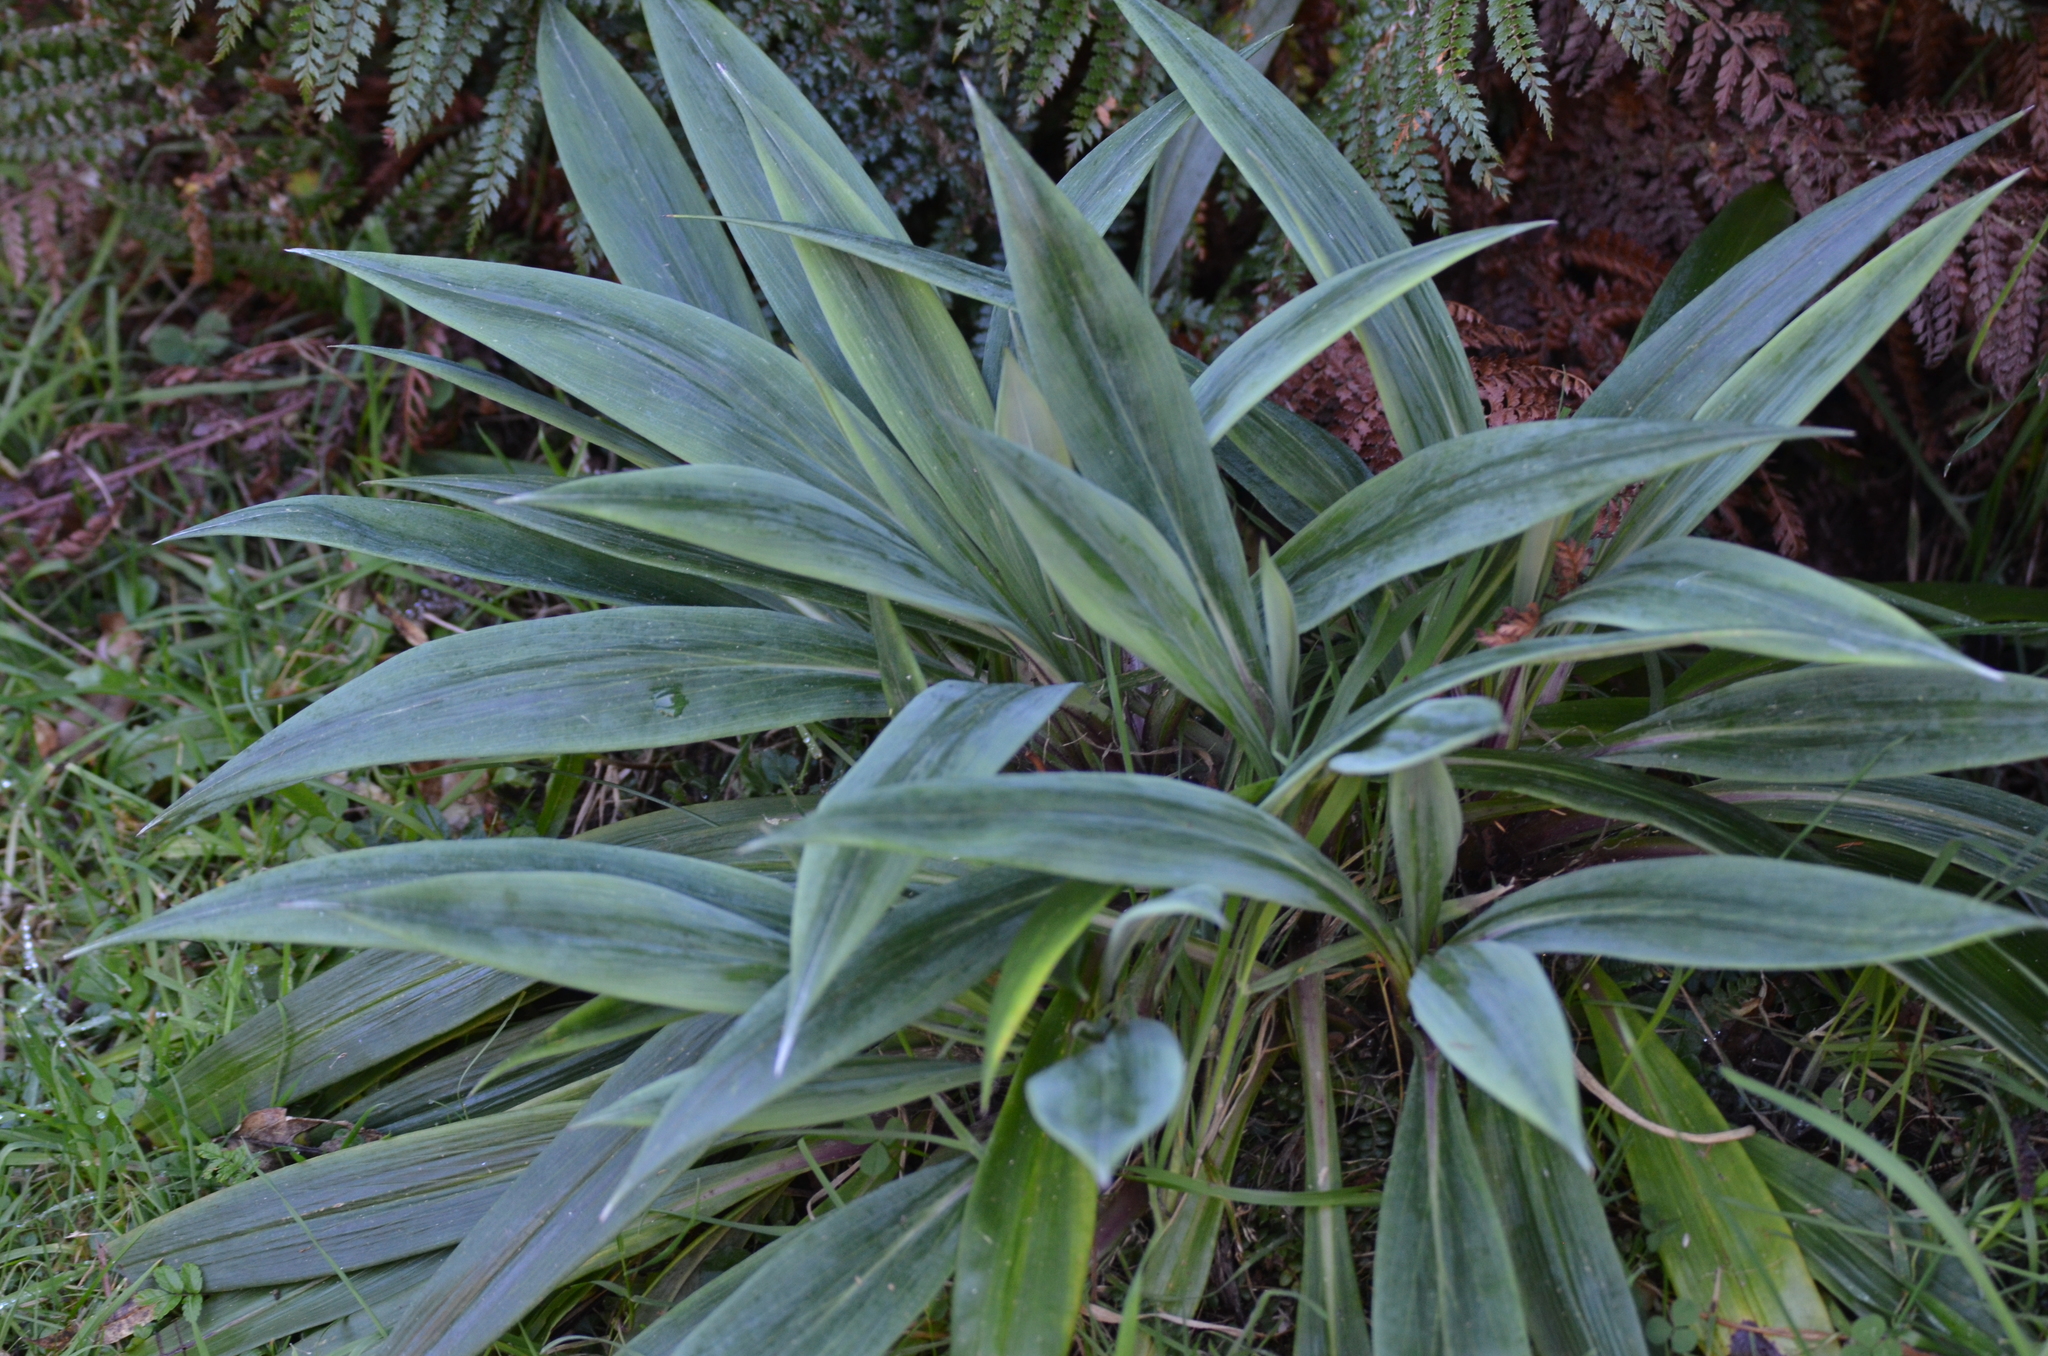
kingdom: Plantae
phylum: Tracheophyta
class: Magnoliopsida
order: Asterales
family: Asteraceae
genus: Celmisia
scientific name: Celmisia mackaui
